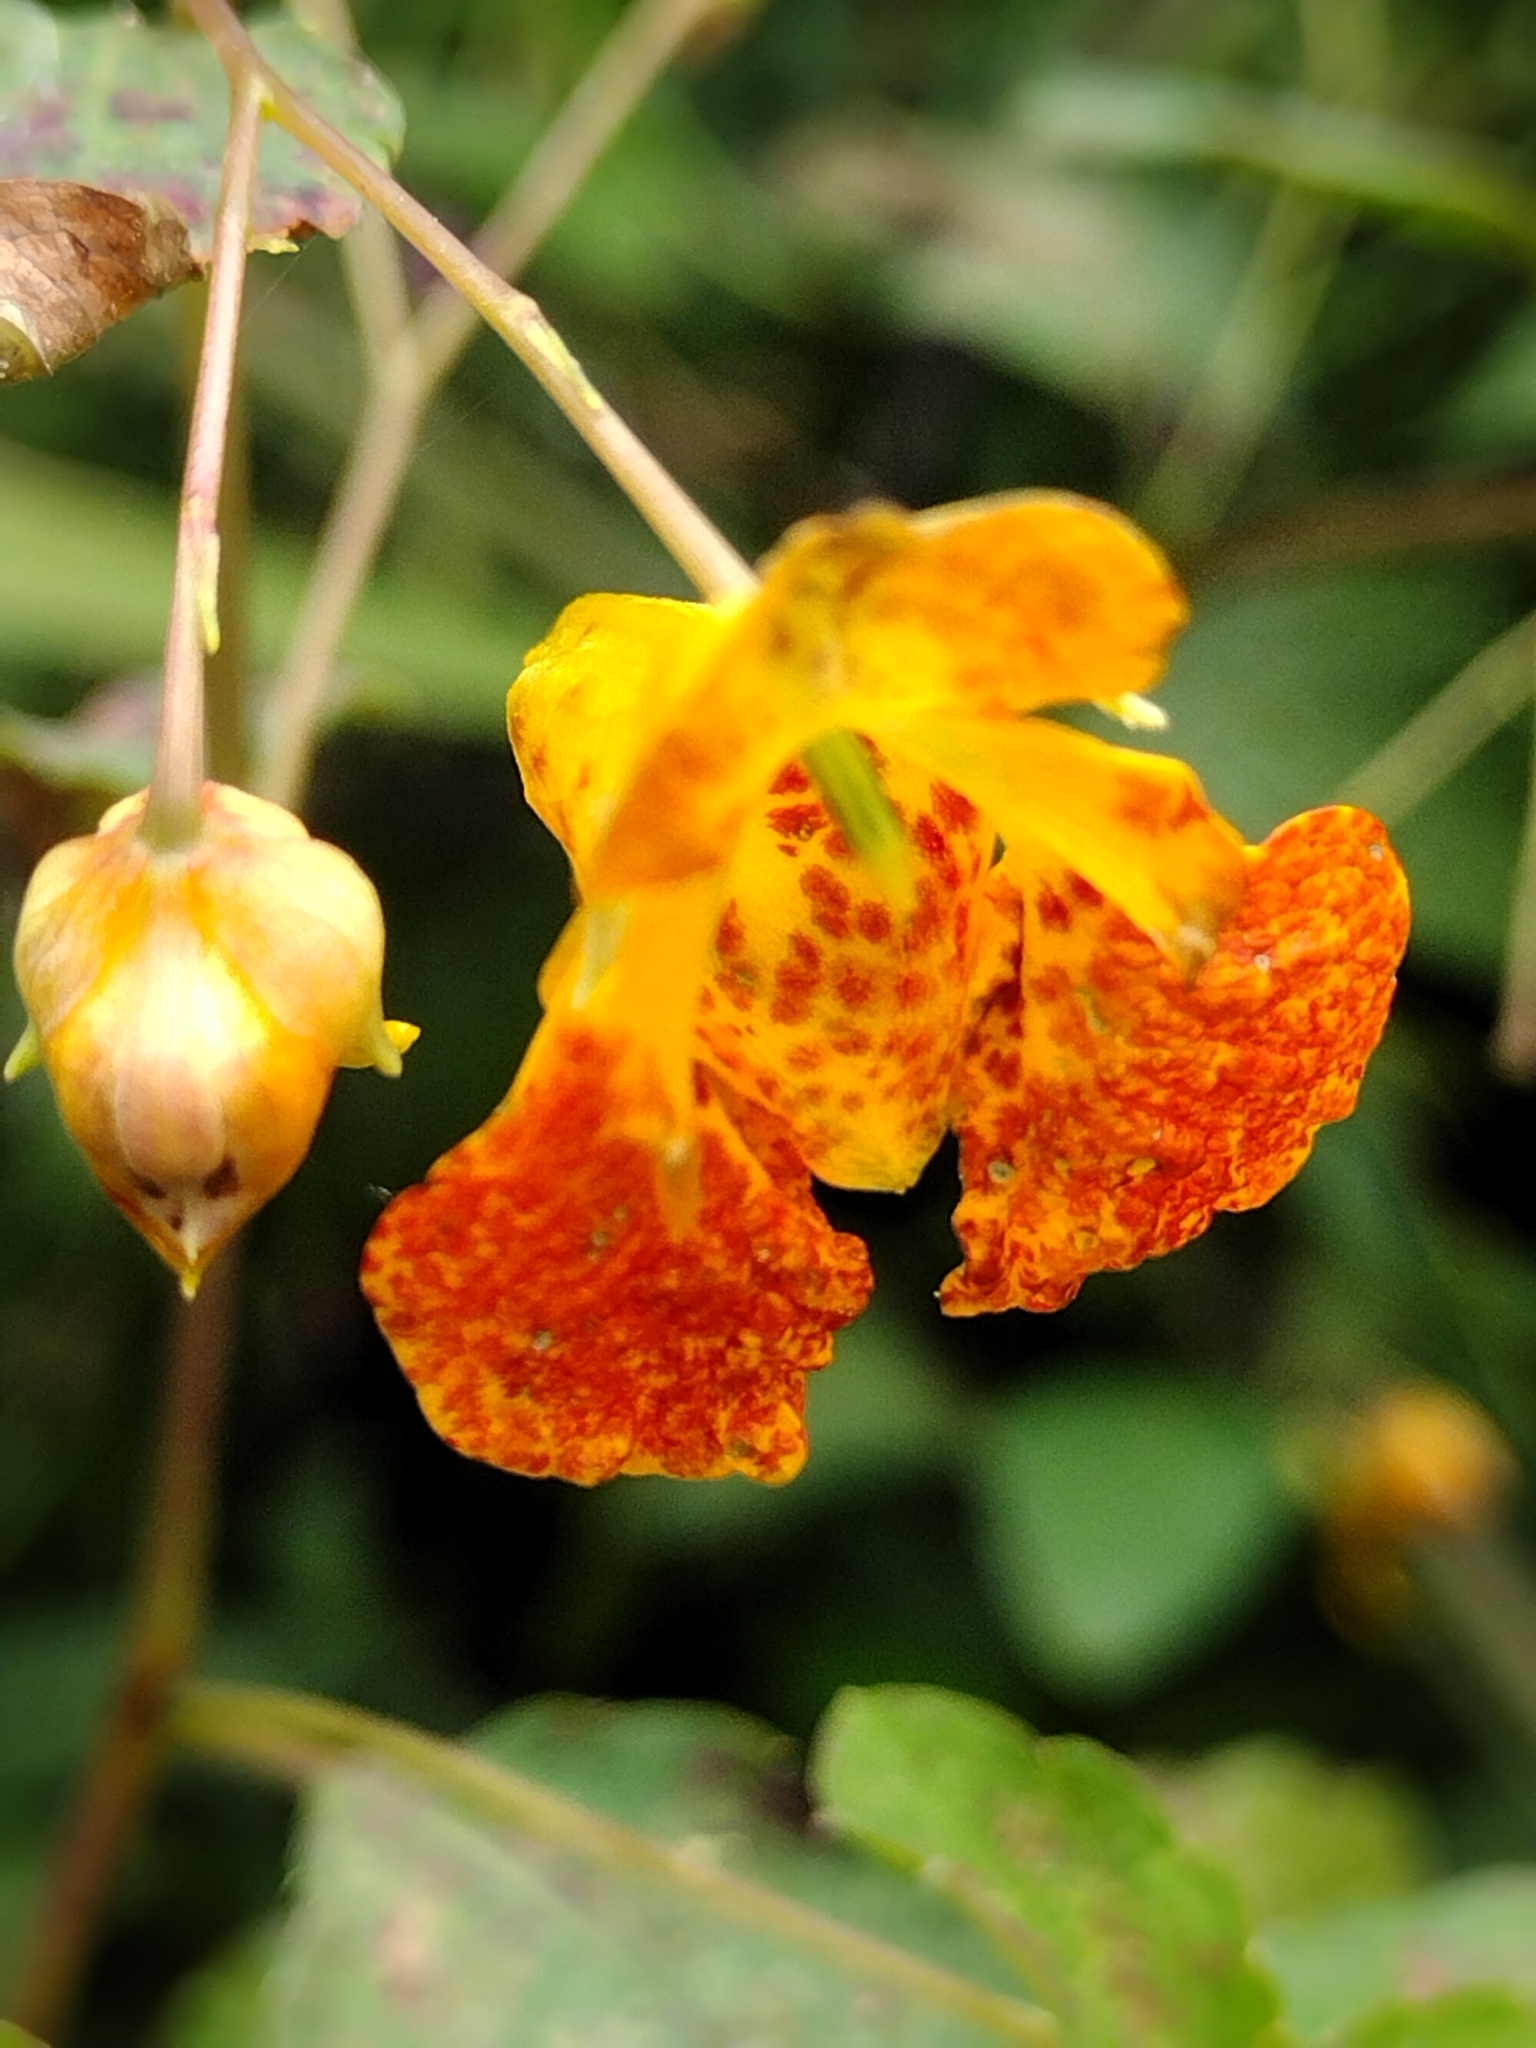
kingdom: Plantae
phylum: Tracheophyta
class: Magnoliopsida
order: Ericales
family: Balsaminaceae
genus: Impatiens
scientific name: Impatiens capensis
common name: Orange balsam
